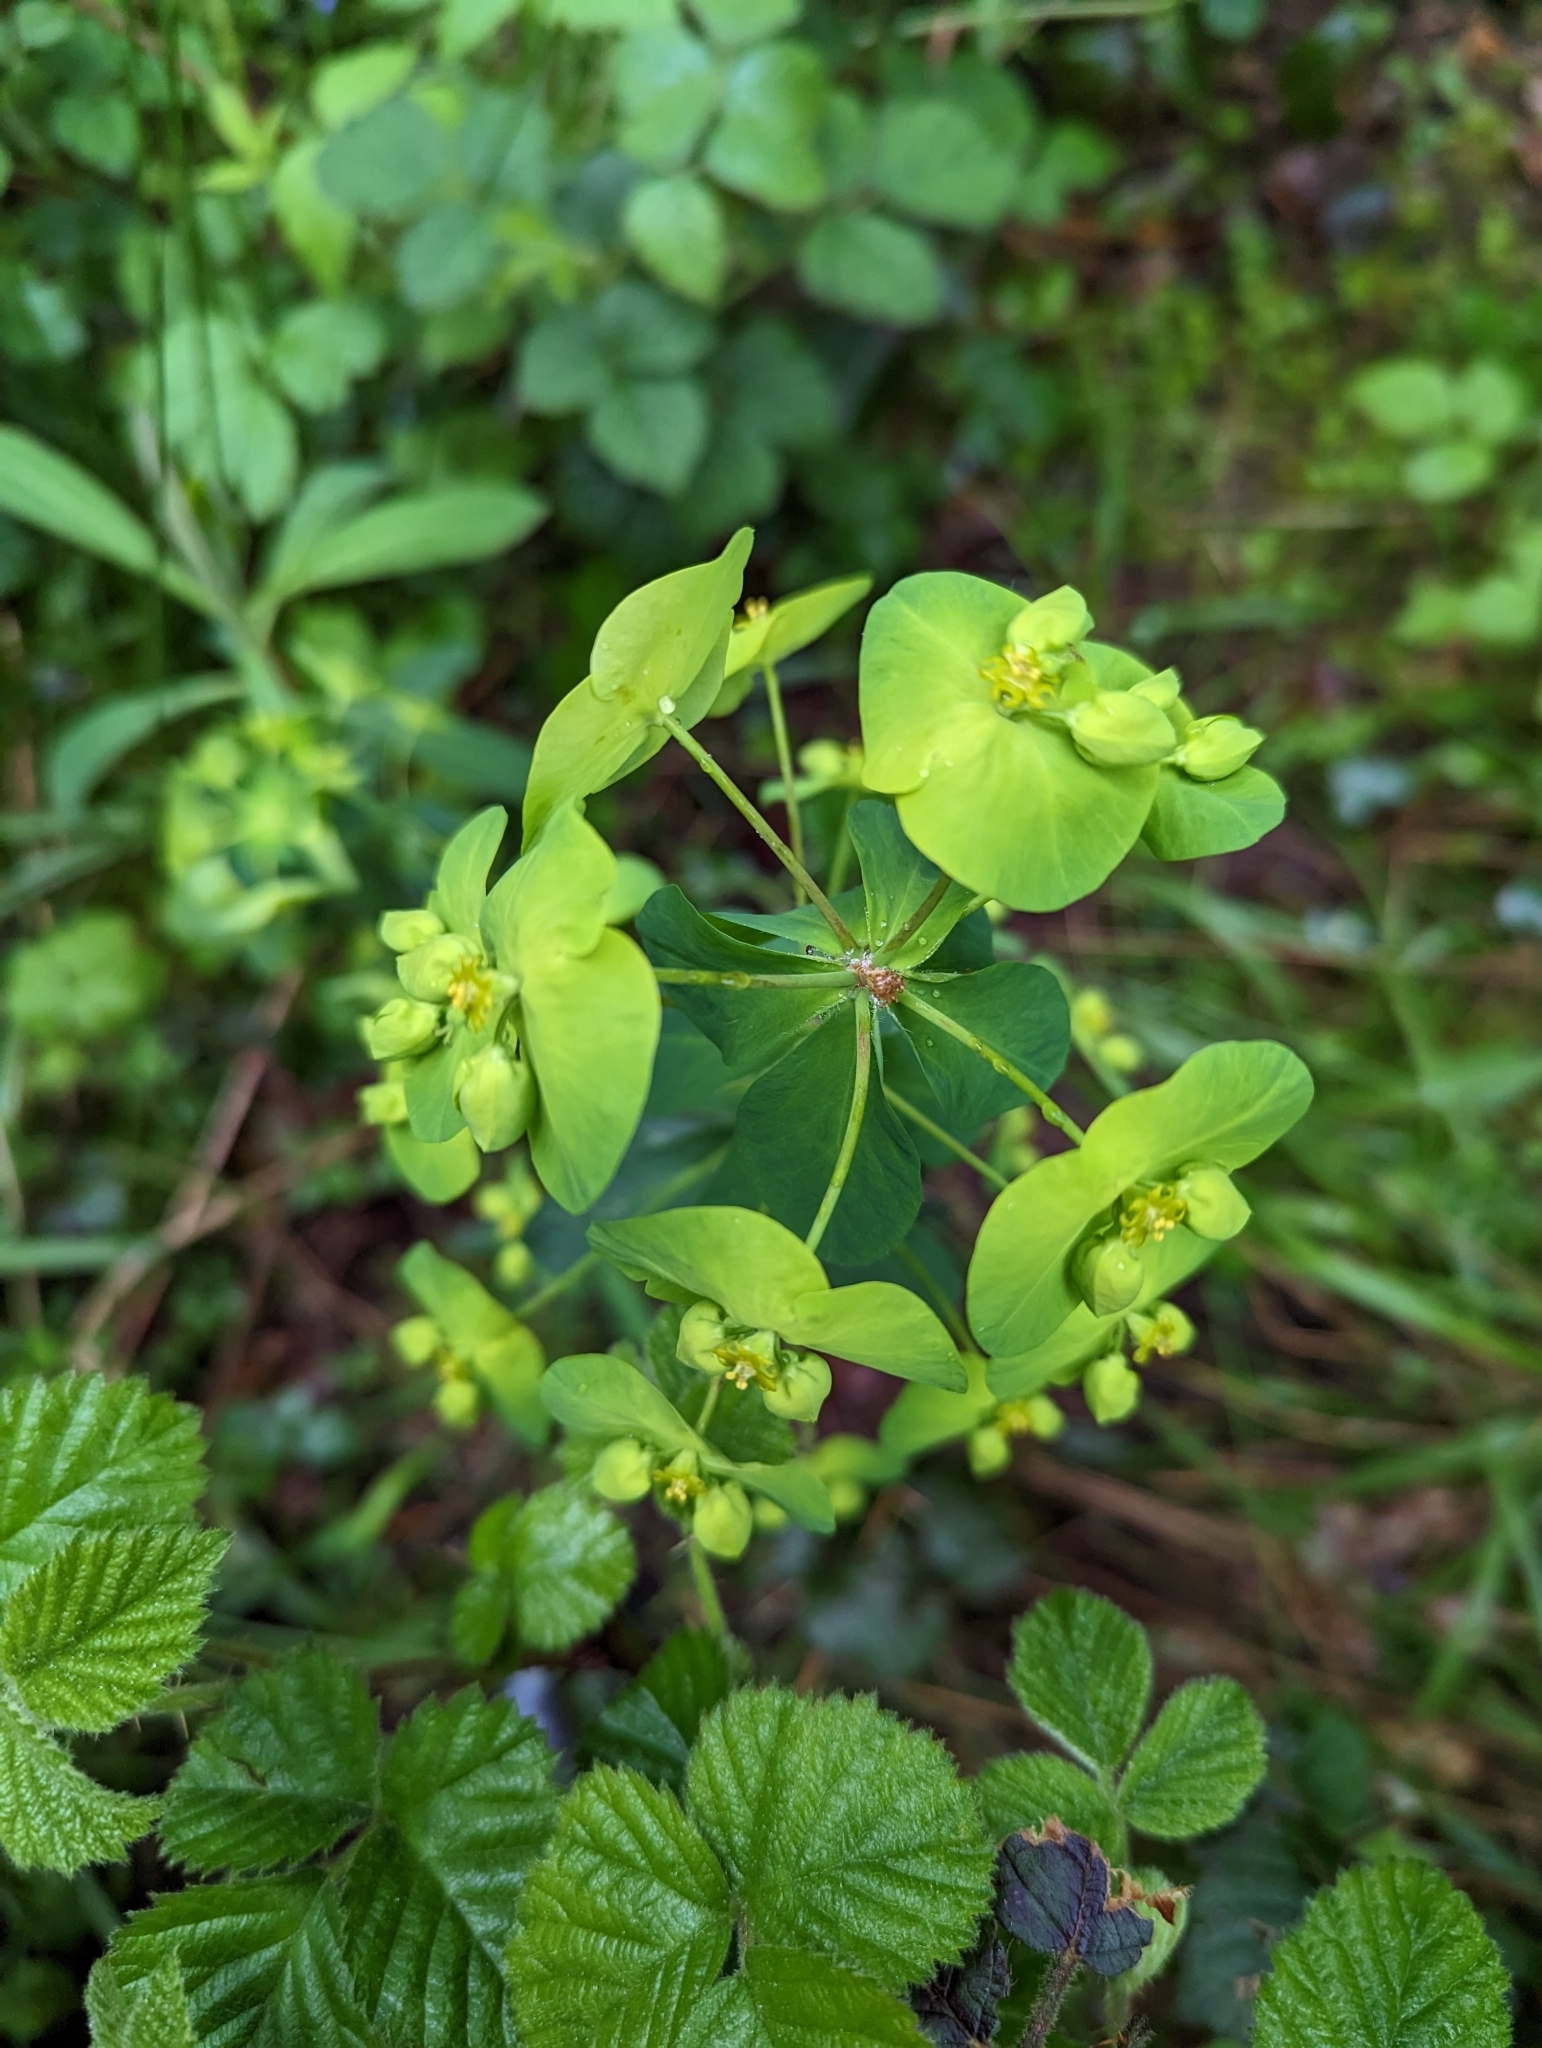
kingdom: Plantae
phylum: Tracheophyta
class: Magnoliopsida
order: Malpighiales
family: Euphorbiaceae
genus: Euphorbia
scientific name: Euphorbia amygdaloides
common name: Wood spurge
